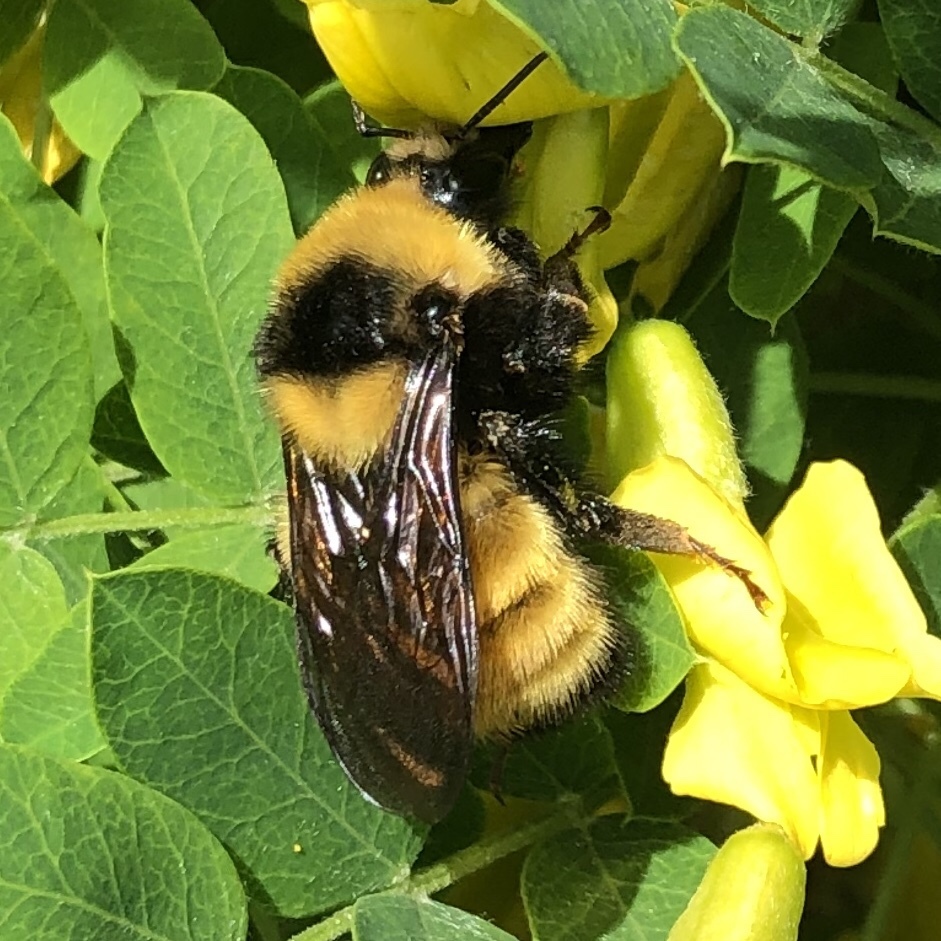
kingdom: Animalia
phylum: Arthropoda
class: Insecta
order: Hymenoptera
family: Apidae
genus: Bombus
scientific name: Bombus borealis
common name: Northern amber bumble bee
